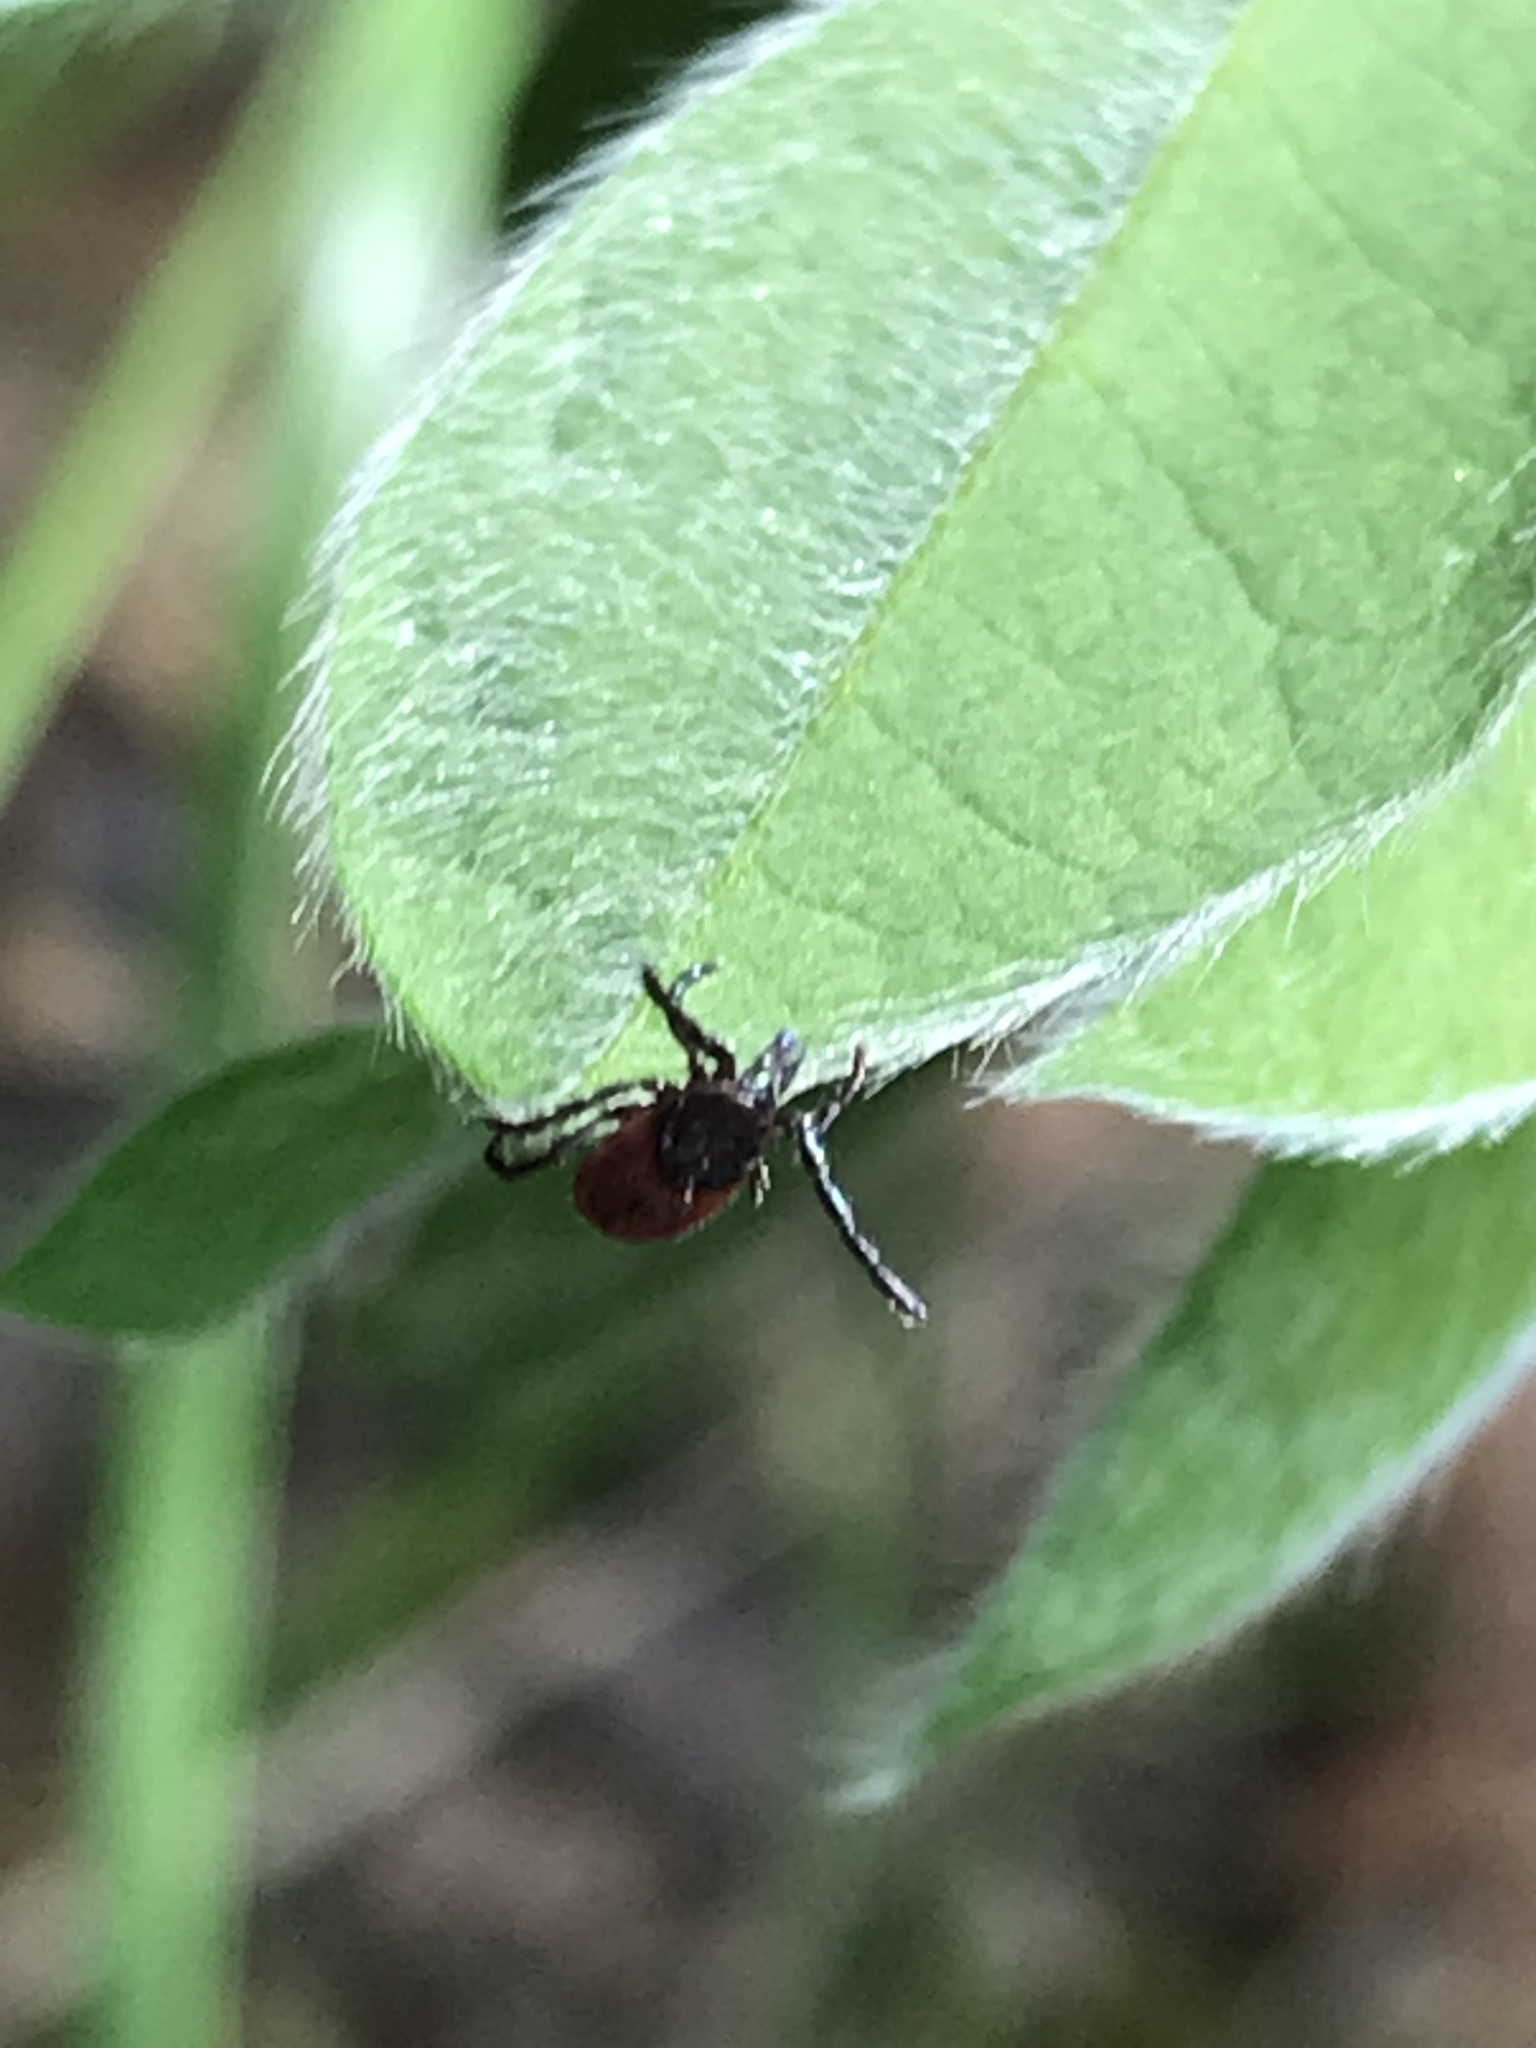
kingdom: Animalia
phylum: Arthropoda
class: Arachnida
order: Ixodida
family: Ixodidae
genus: Ixodes
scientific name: Ixodes pacificus
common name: California black-legged tick
